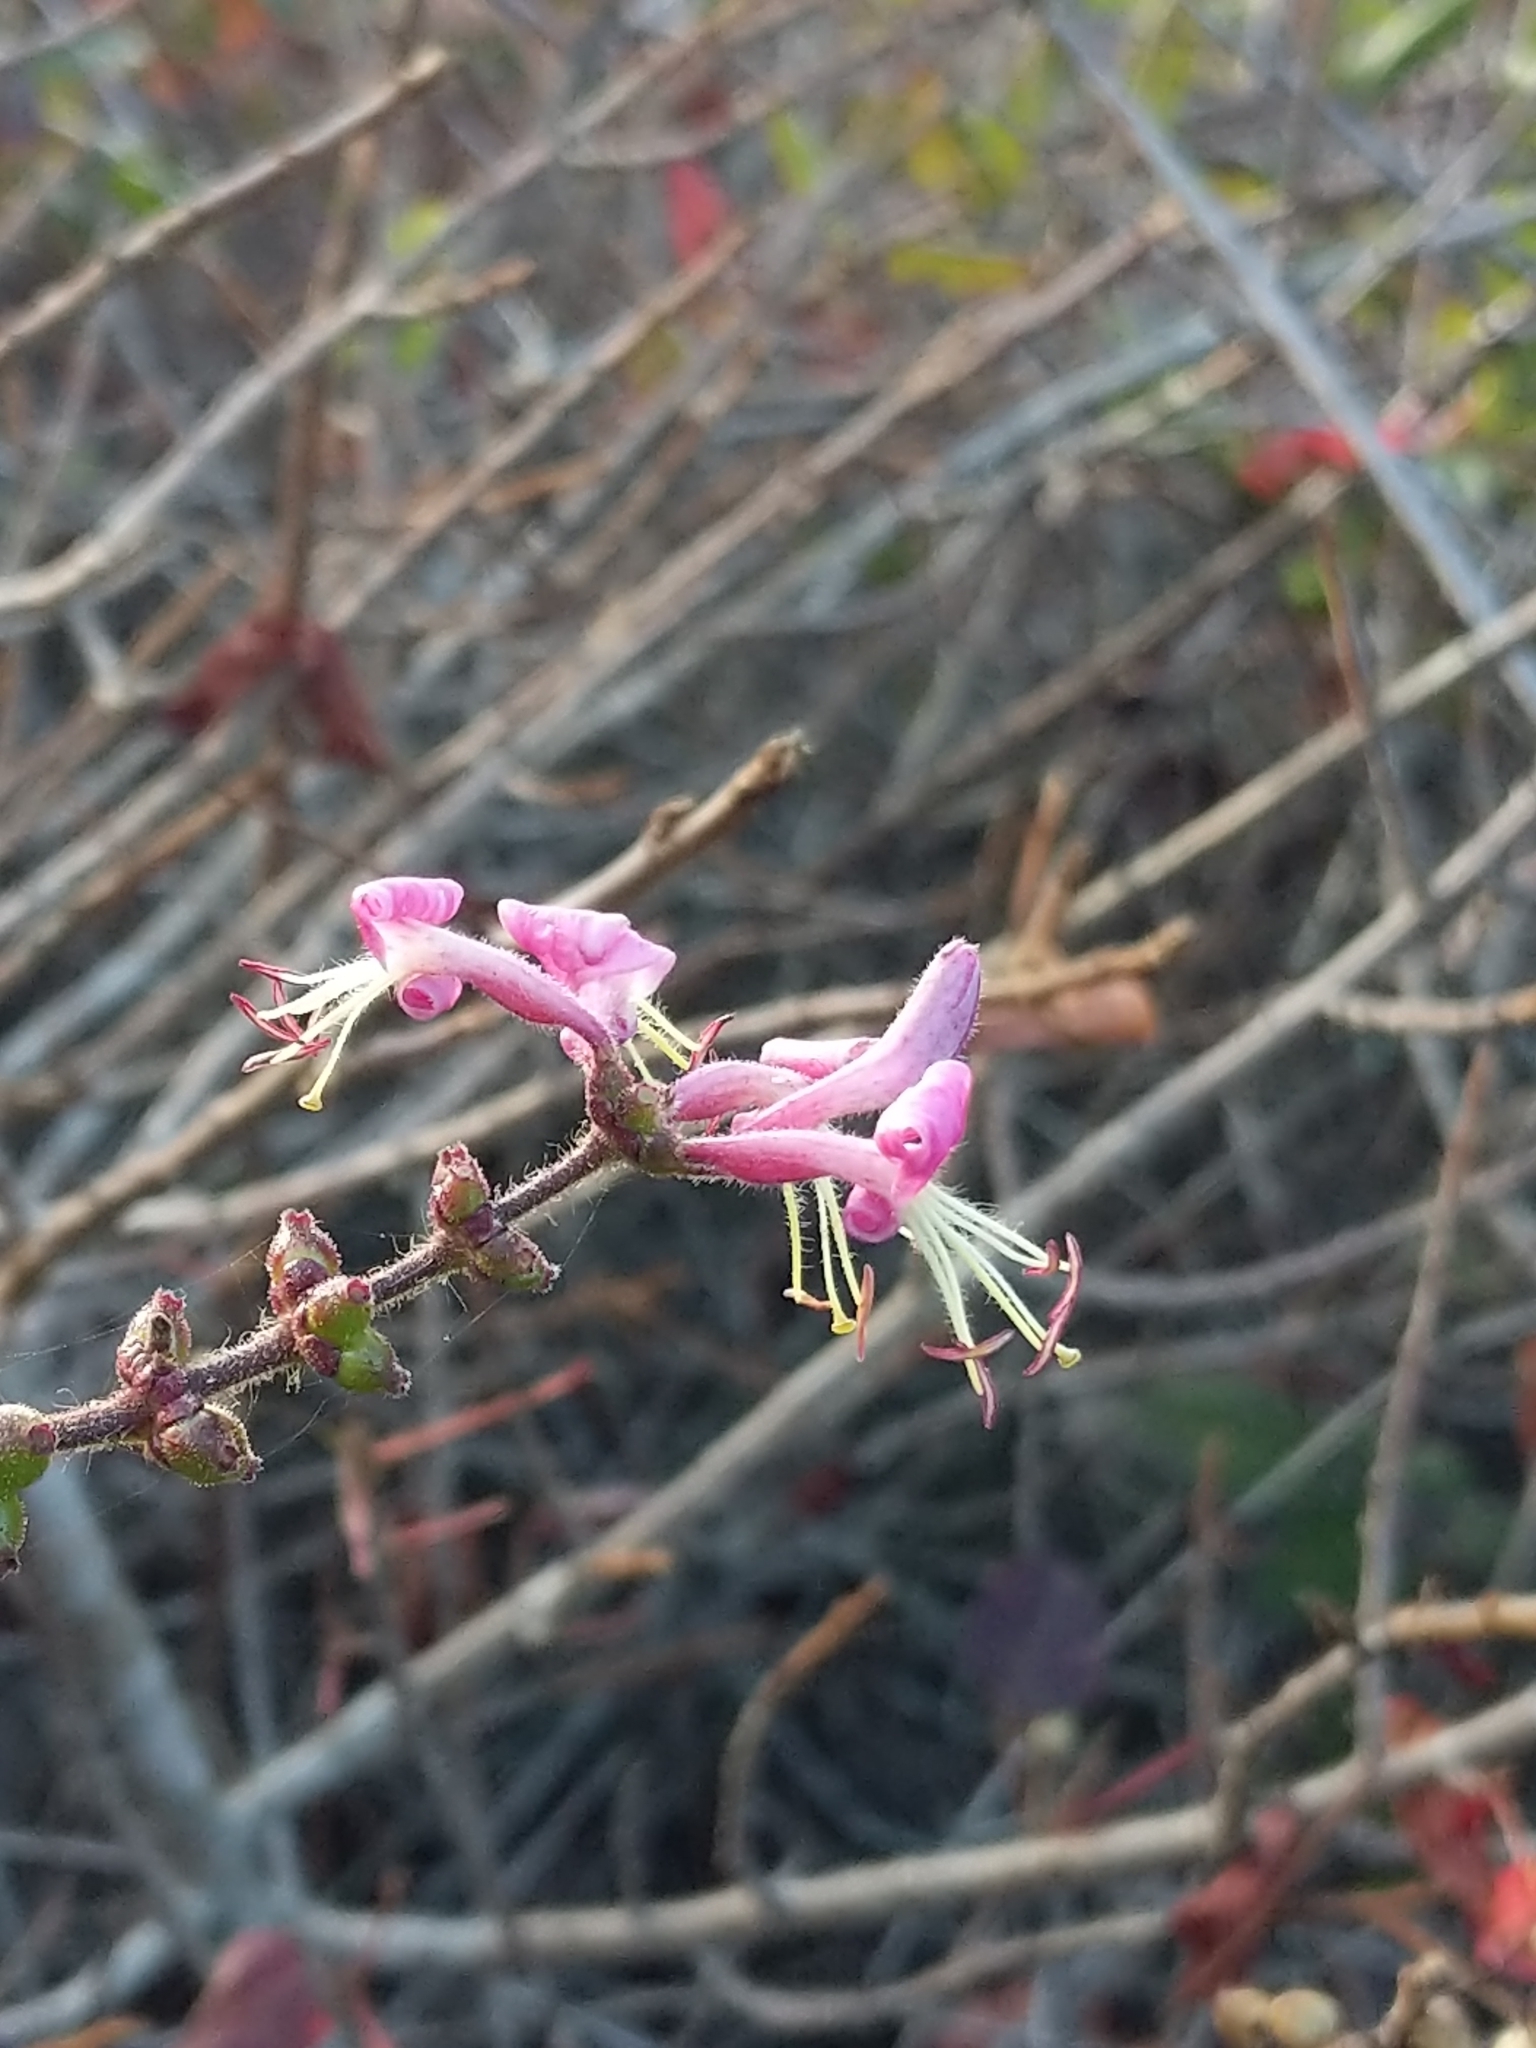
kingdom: Plantae
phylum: Tracheophyta
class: Magnoliopsida
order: Dipsacales
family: Caprifoliaceae
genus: Lonicera
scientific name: Lonicera hispidula
